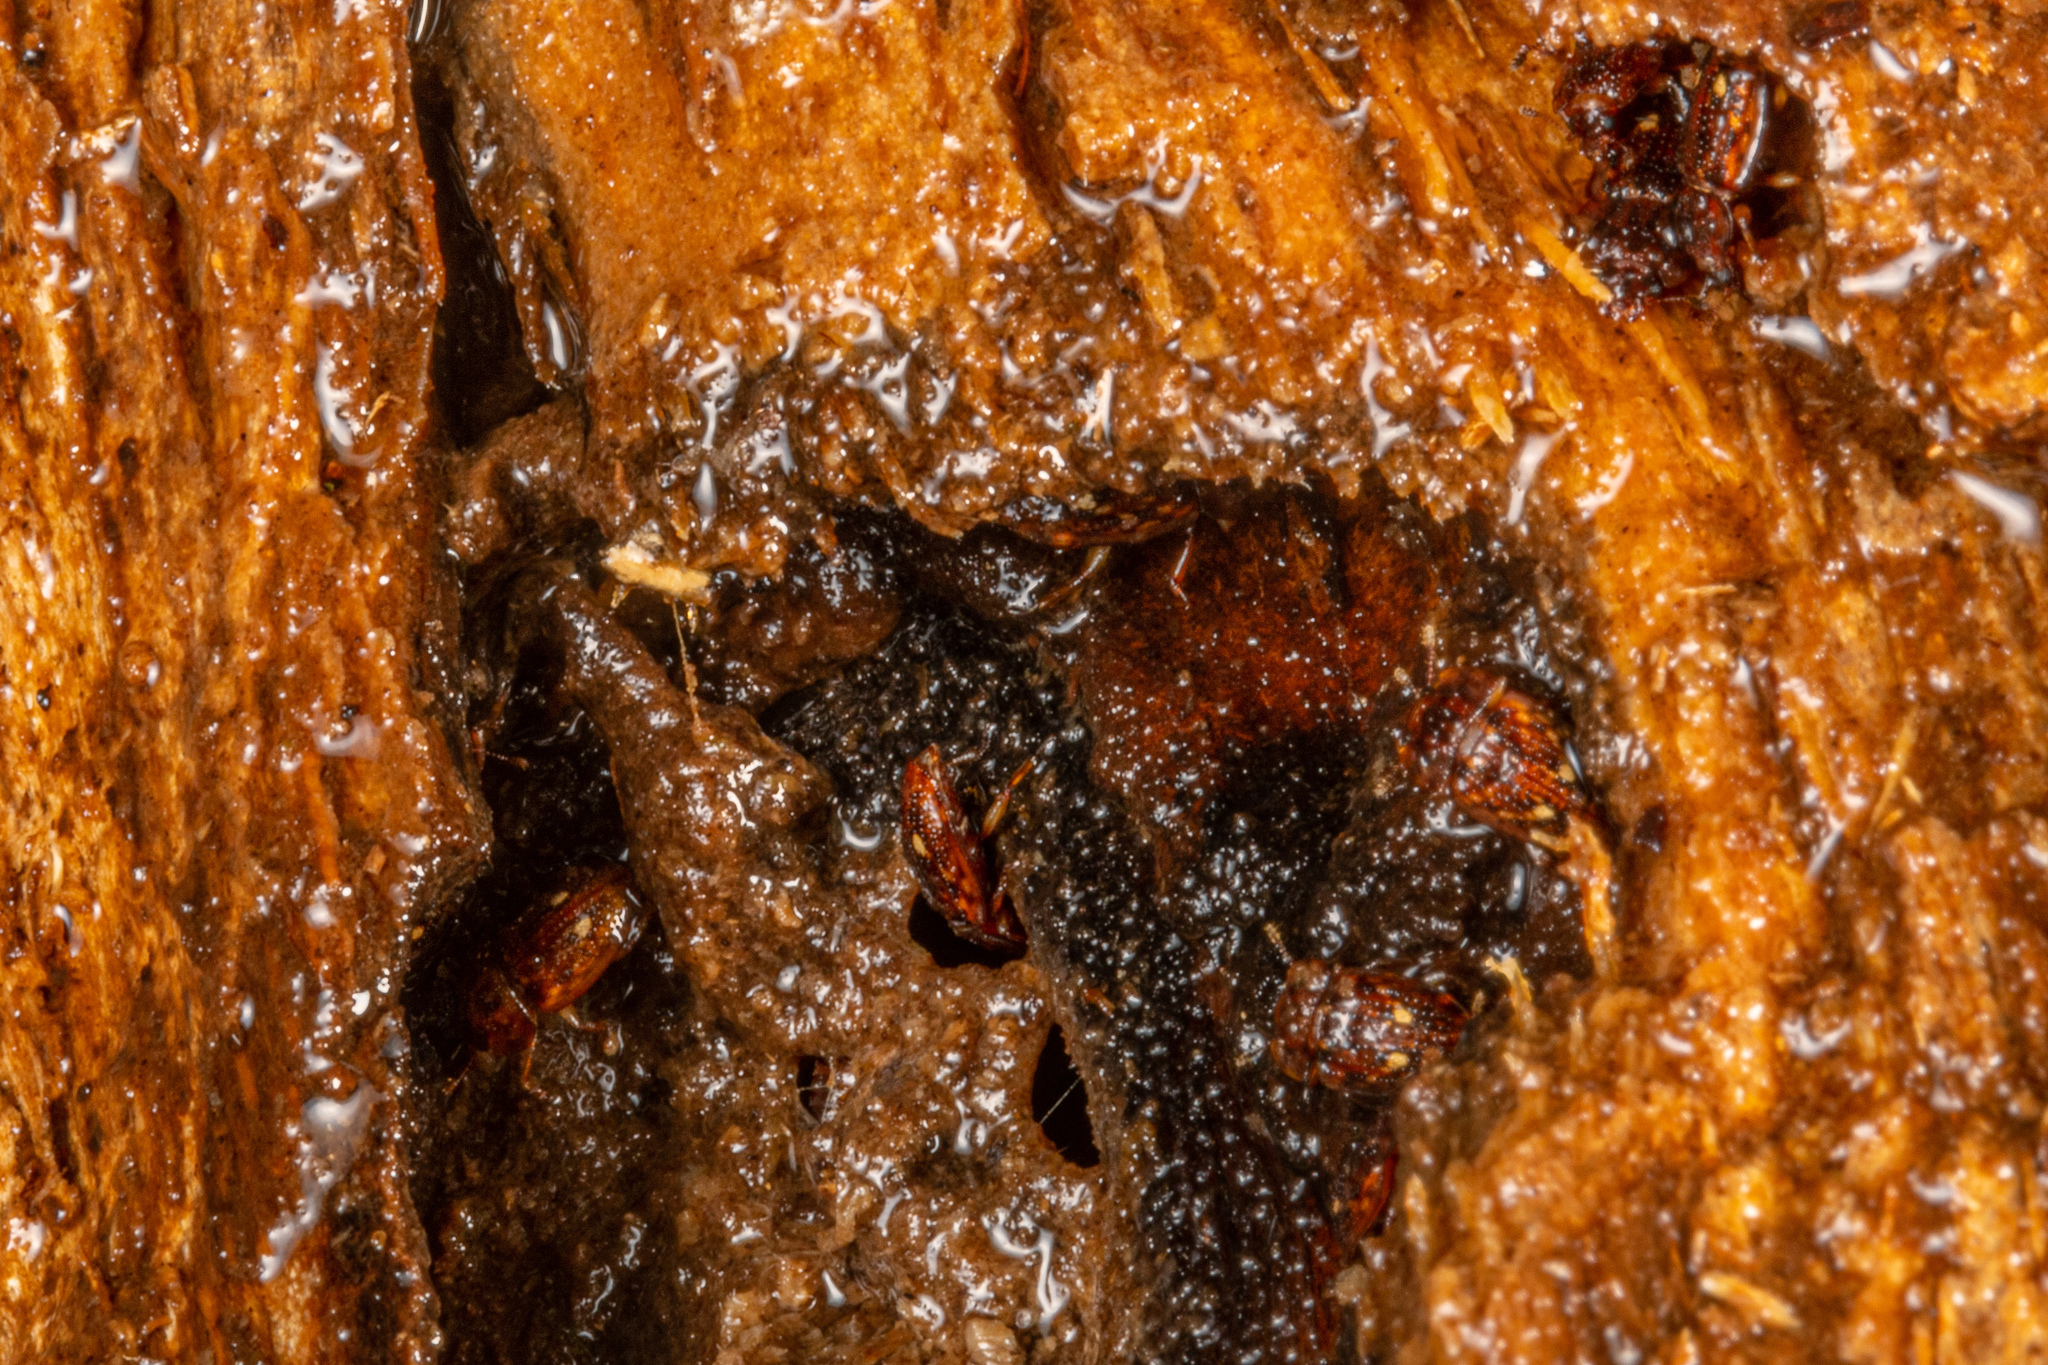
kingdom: Animalia
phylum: Arthropoda
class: Insecta
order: Coleoptera
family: Nitidulidae
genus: Soronia
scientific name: Soronia
